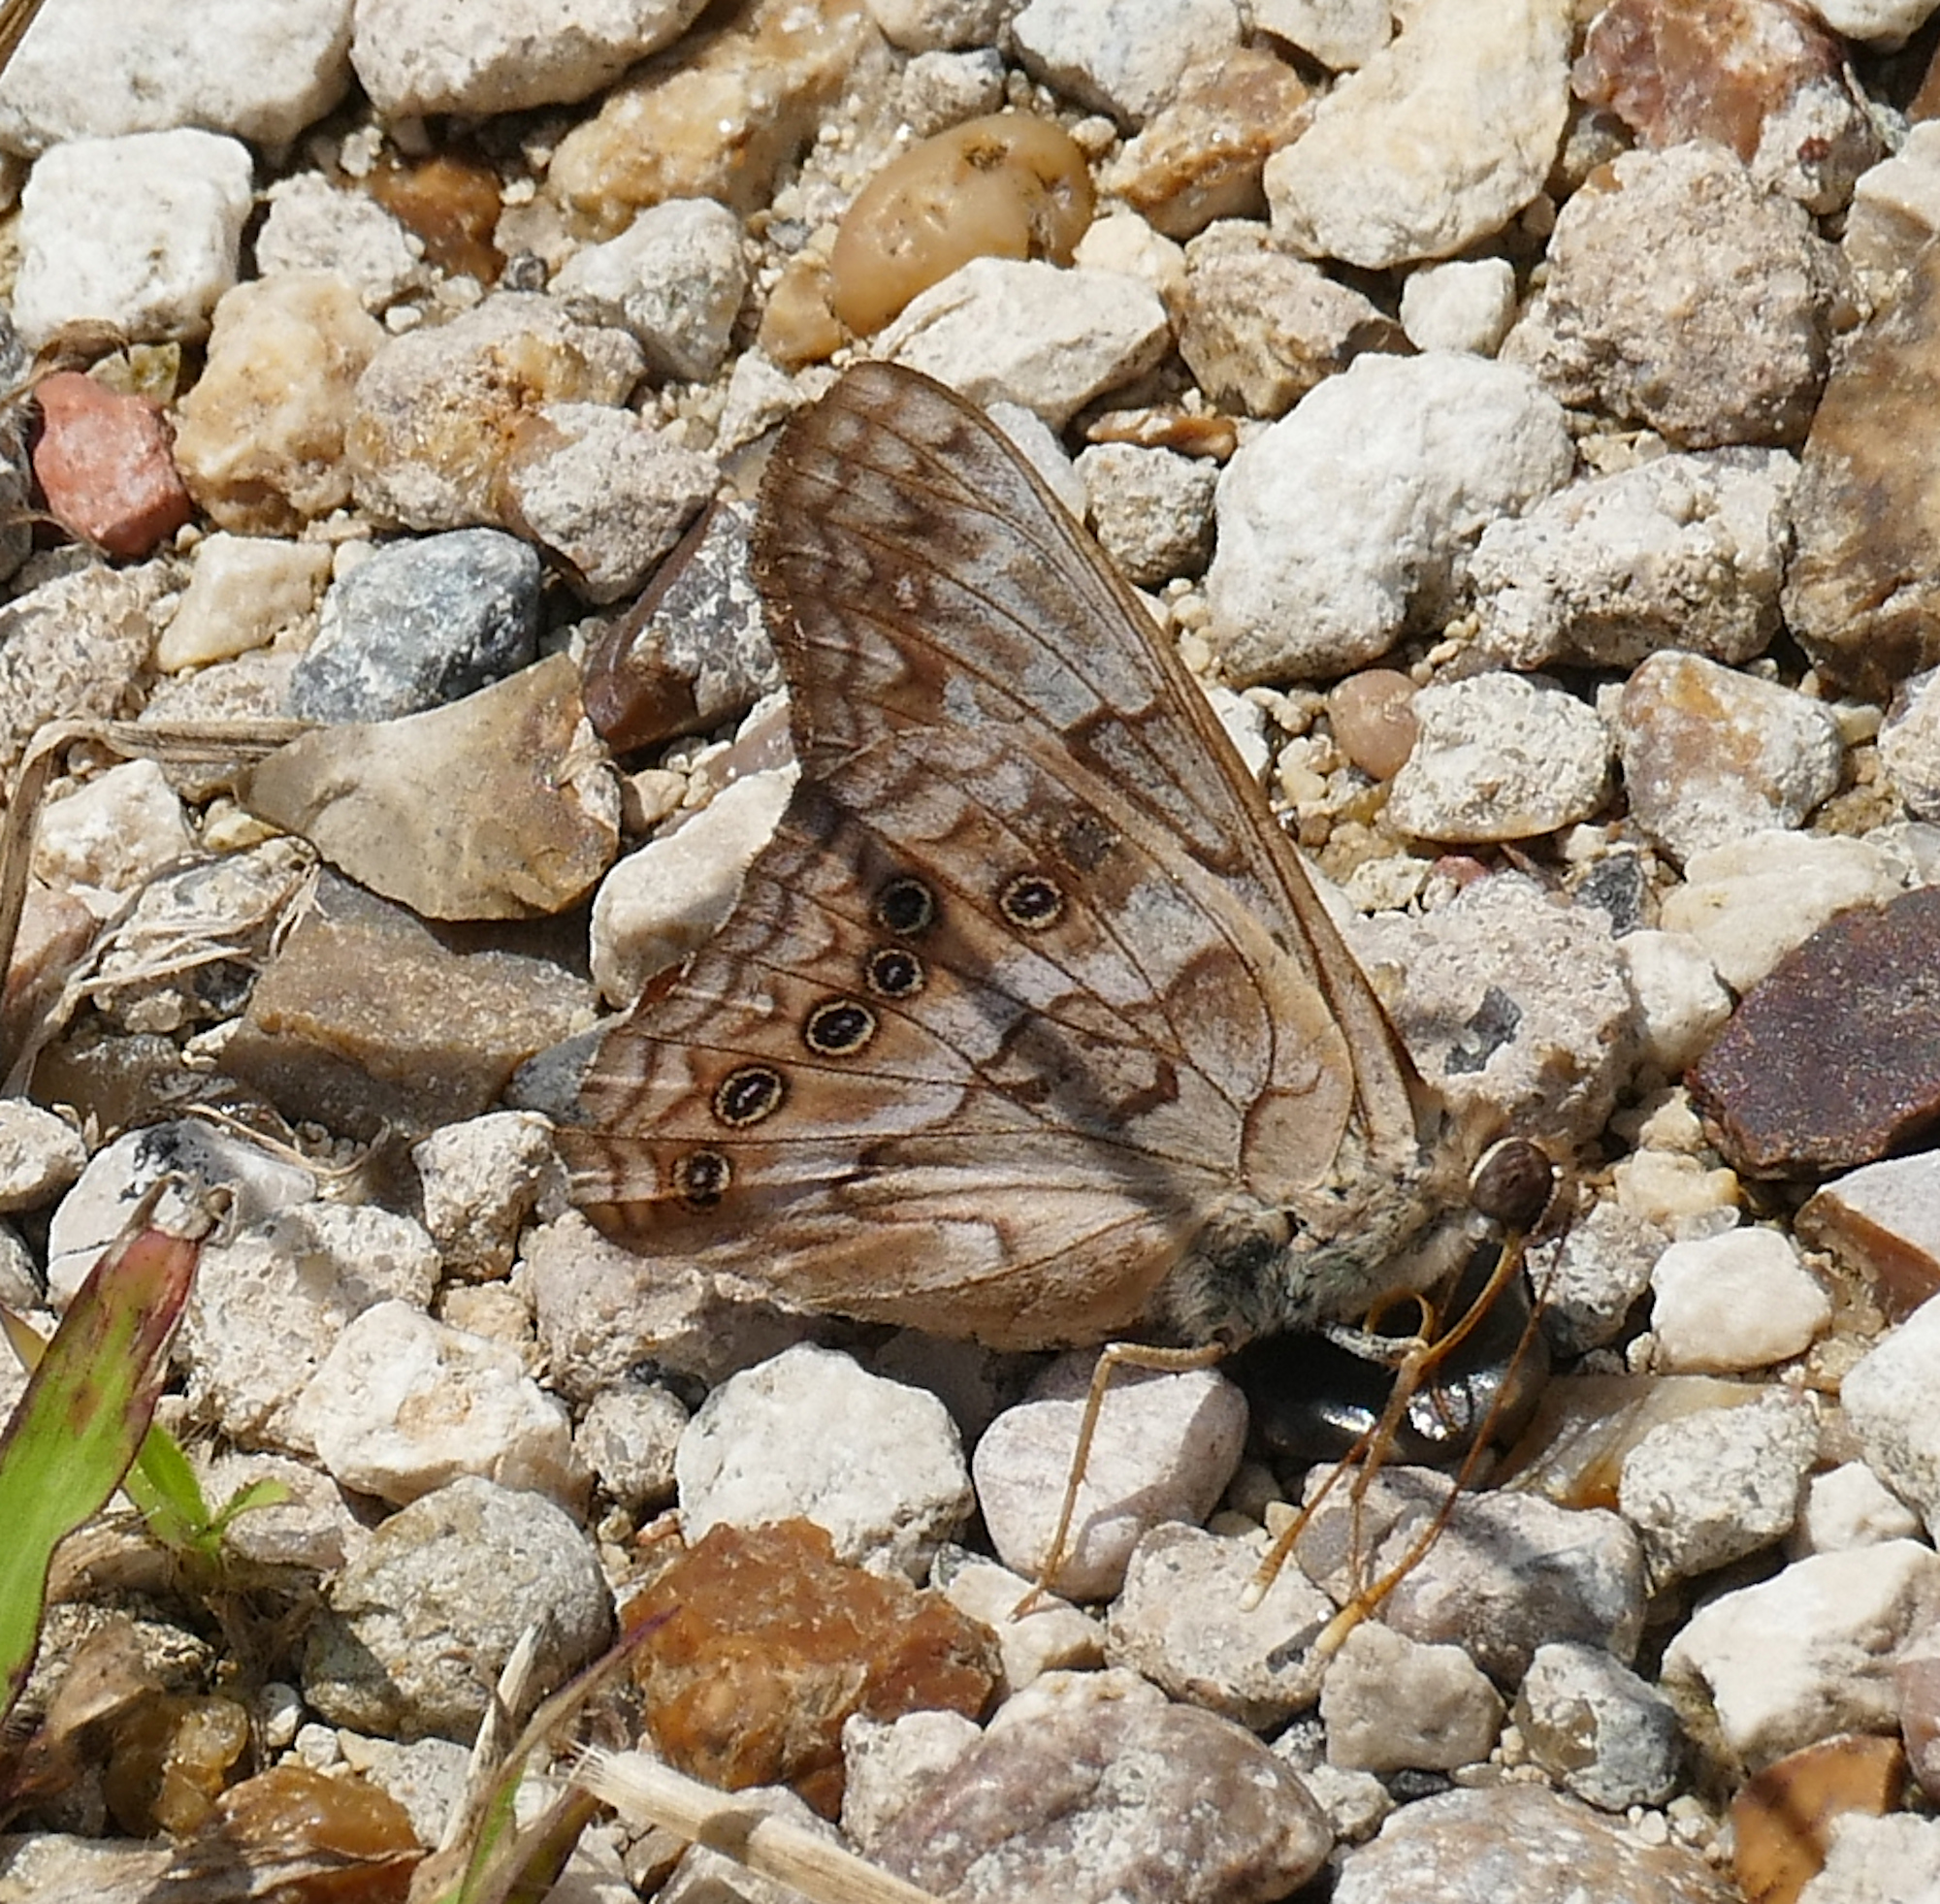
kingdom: Animalia
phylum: Arthropoda
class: Insecta
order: Lepidoptera
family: Nymphalidae
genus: Asterocampa
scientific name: Asterocampa clyton
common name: Tawny emperor
